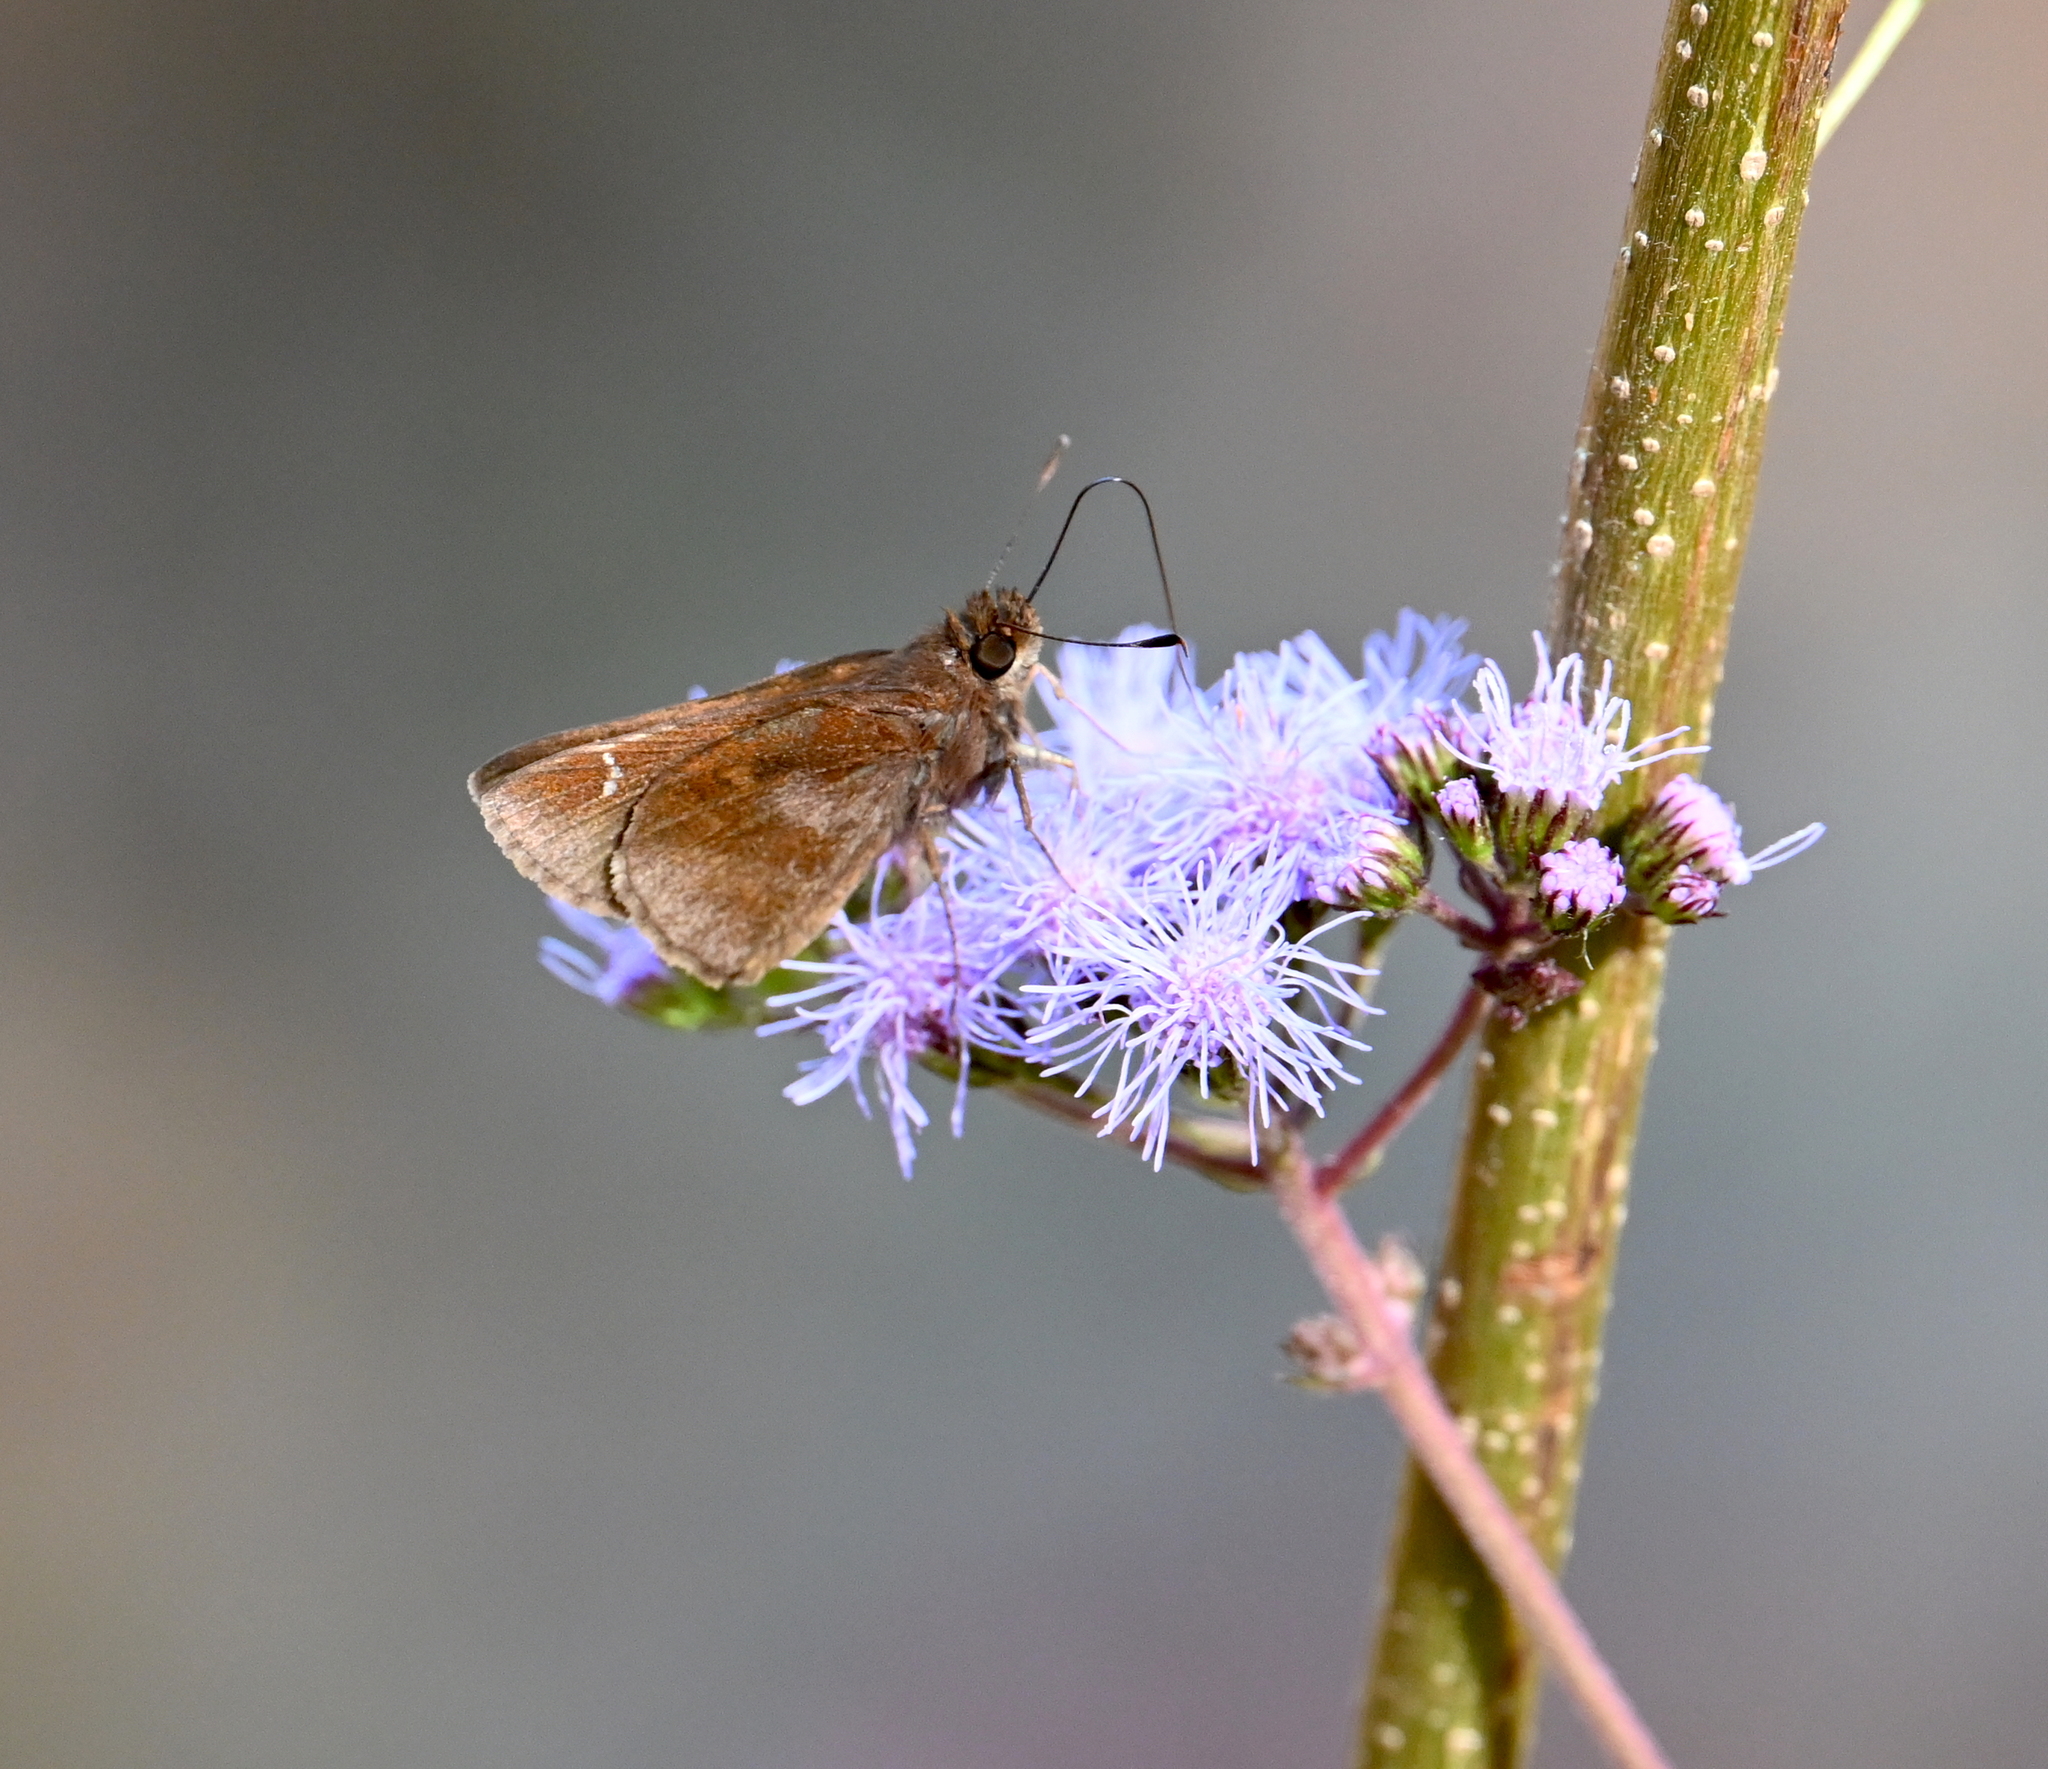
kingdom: Animalia
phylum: Arthropoda
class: Insecta
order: Lepidoptera
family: Hesperiidae
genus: Lerema
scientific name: Lerema accius
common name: Clouded skipper
